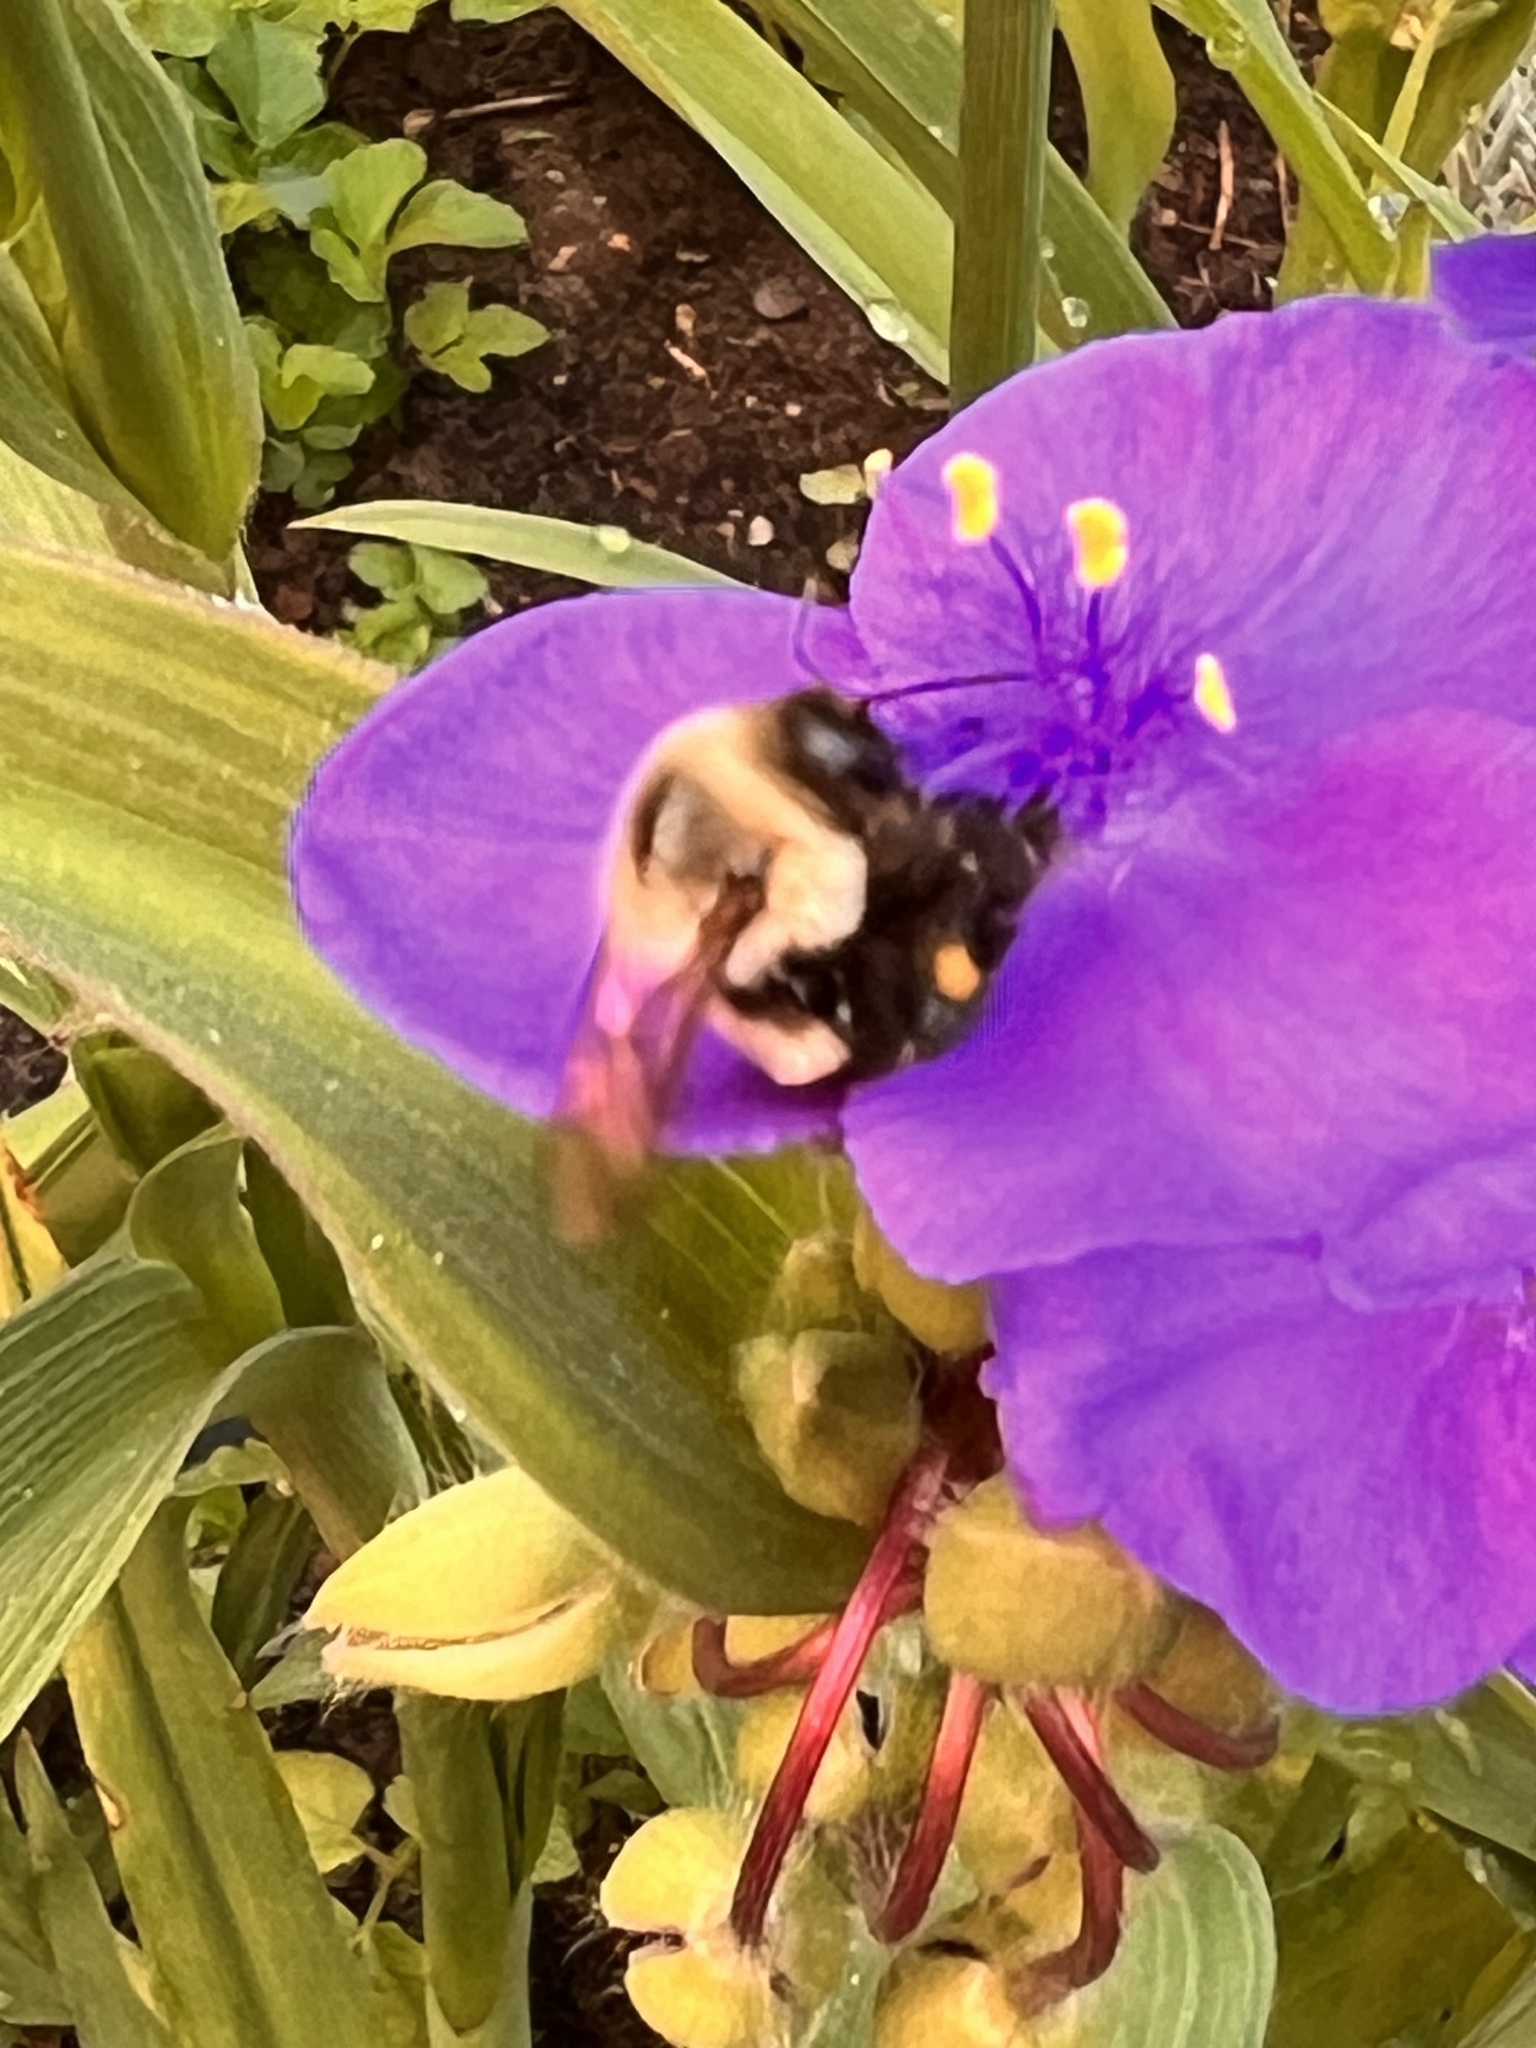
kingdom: Animalia
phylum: Arthropoda
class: Insecta
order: Hymenoptera
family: Apidae
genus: Bombus
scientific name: Bombus impatiens
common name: Common eastern bumble bee
